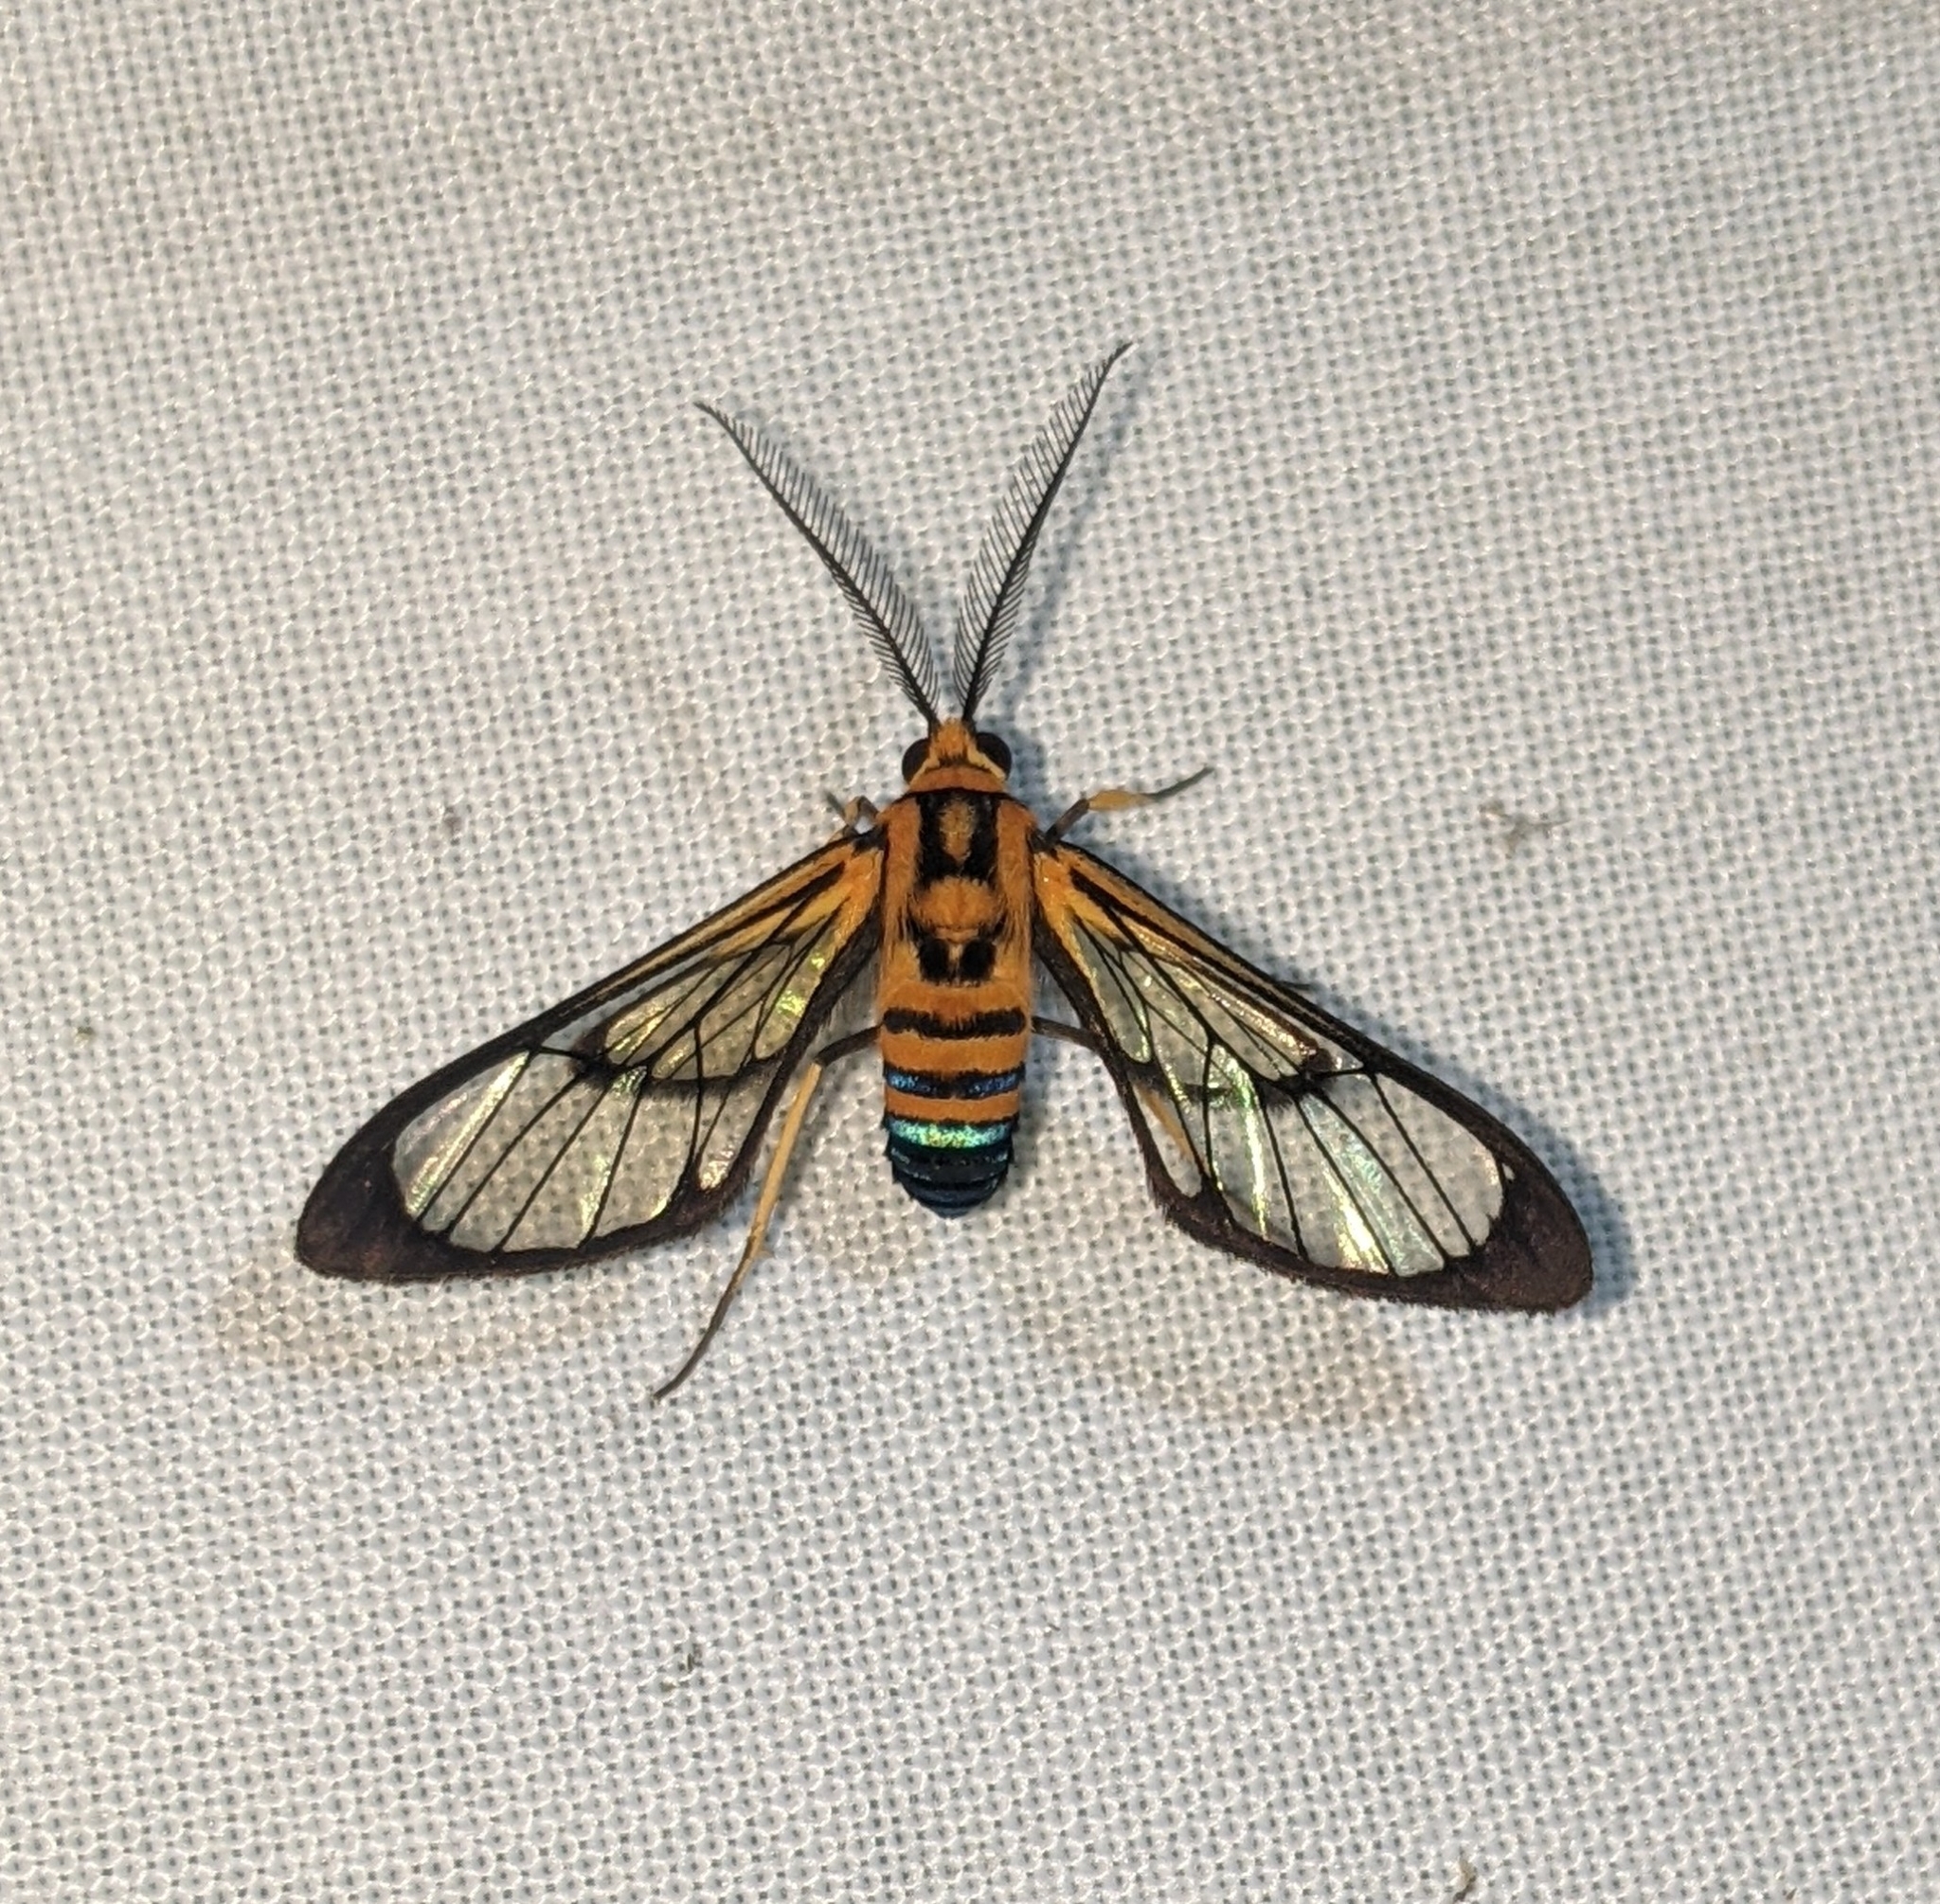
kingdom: Animalia
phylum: Arthropoda
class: Insecta
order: Lepidoptera
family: Erebidae
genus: Mesothen
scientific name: Mesothen nomia
